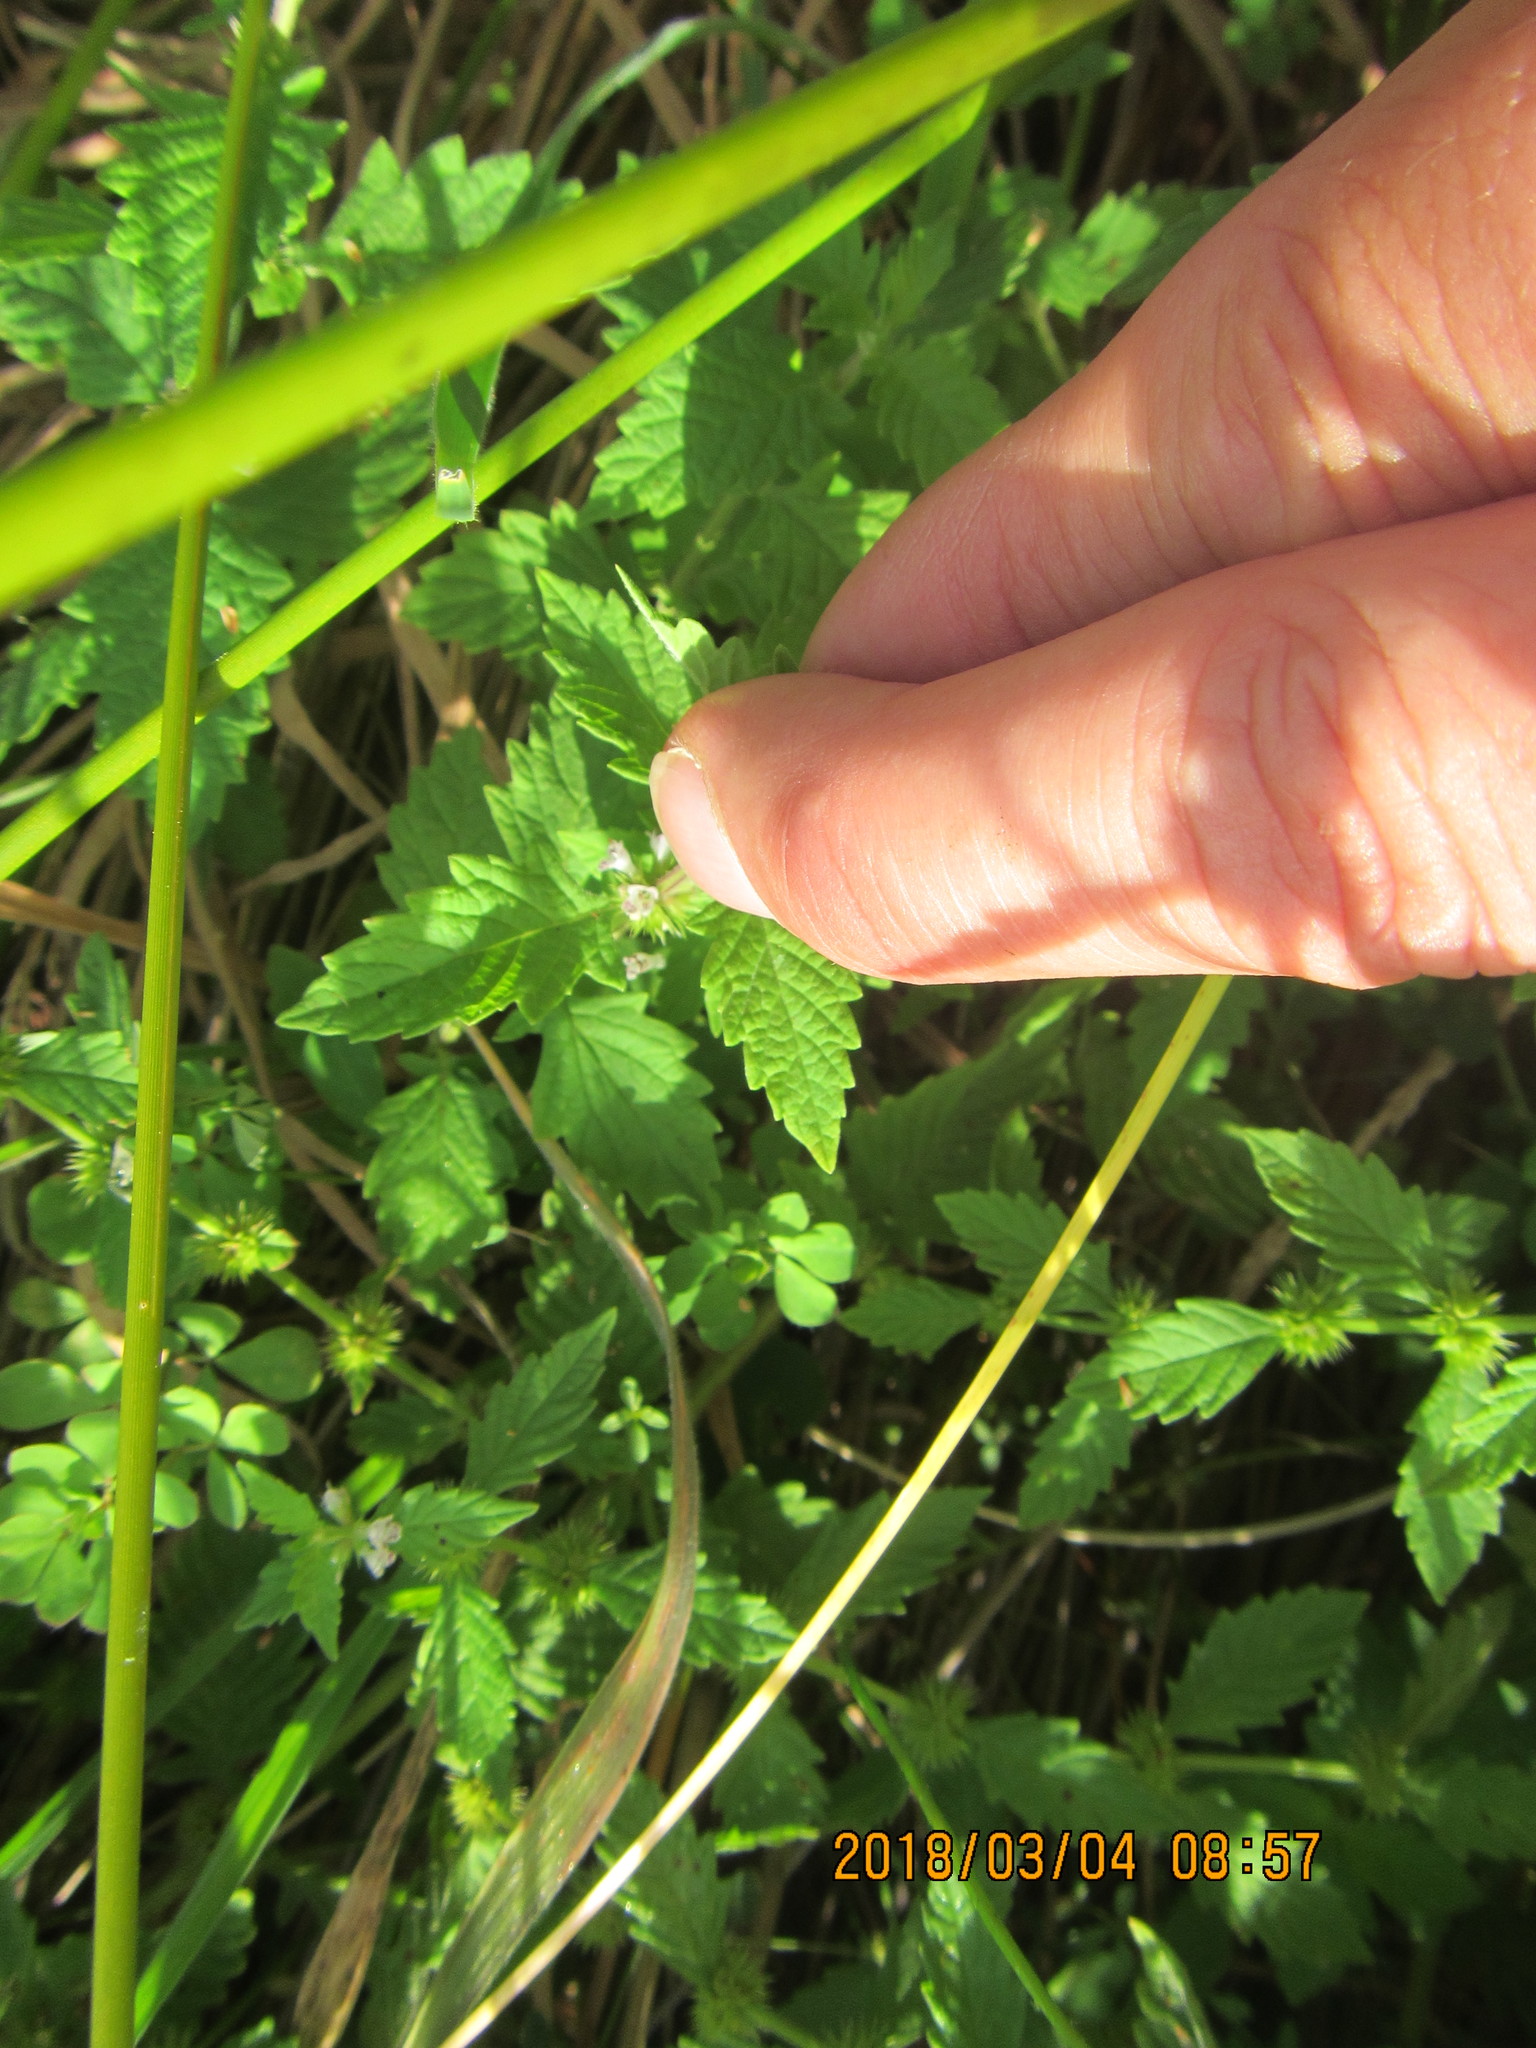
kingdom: Plantae
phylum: Tracheophyta
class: Magnoliopsida
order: Lamiales
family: Lamiaceae
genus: Lycopus
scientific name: Lycopus europaeus
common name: European bugleweed
